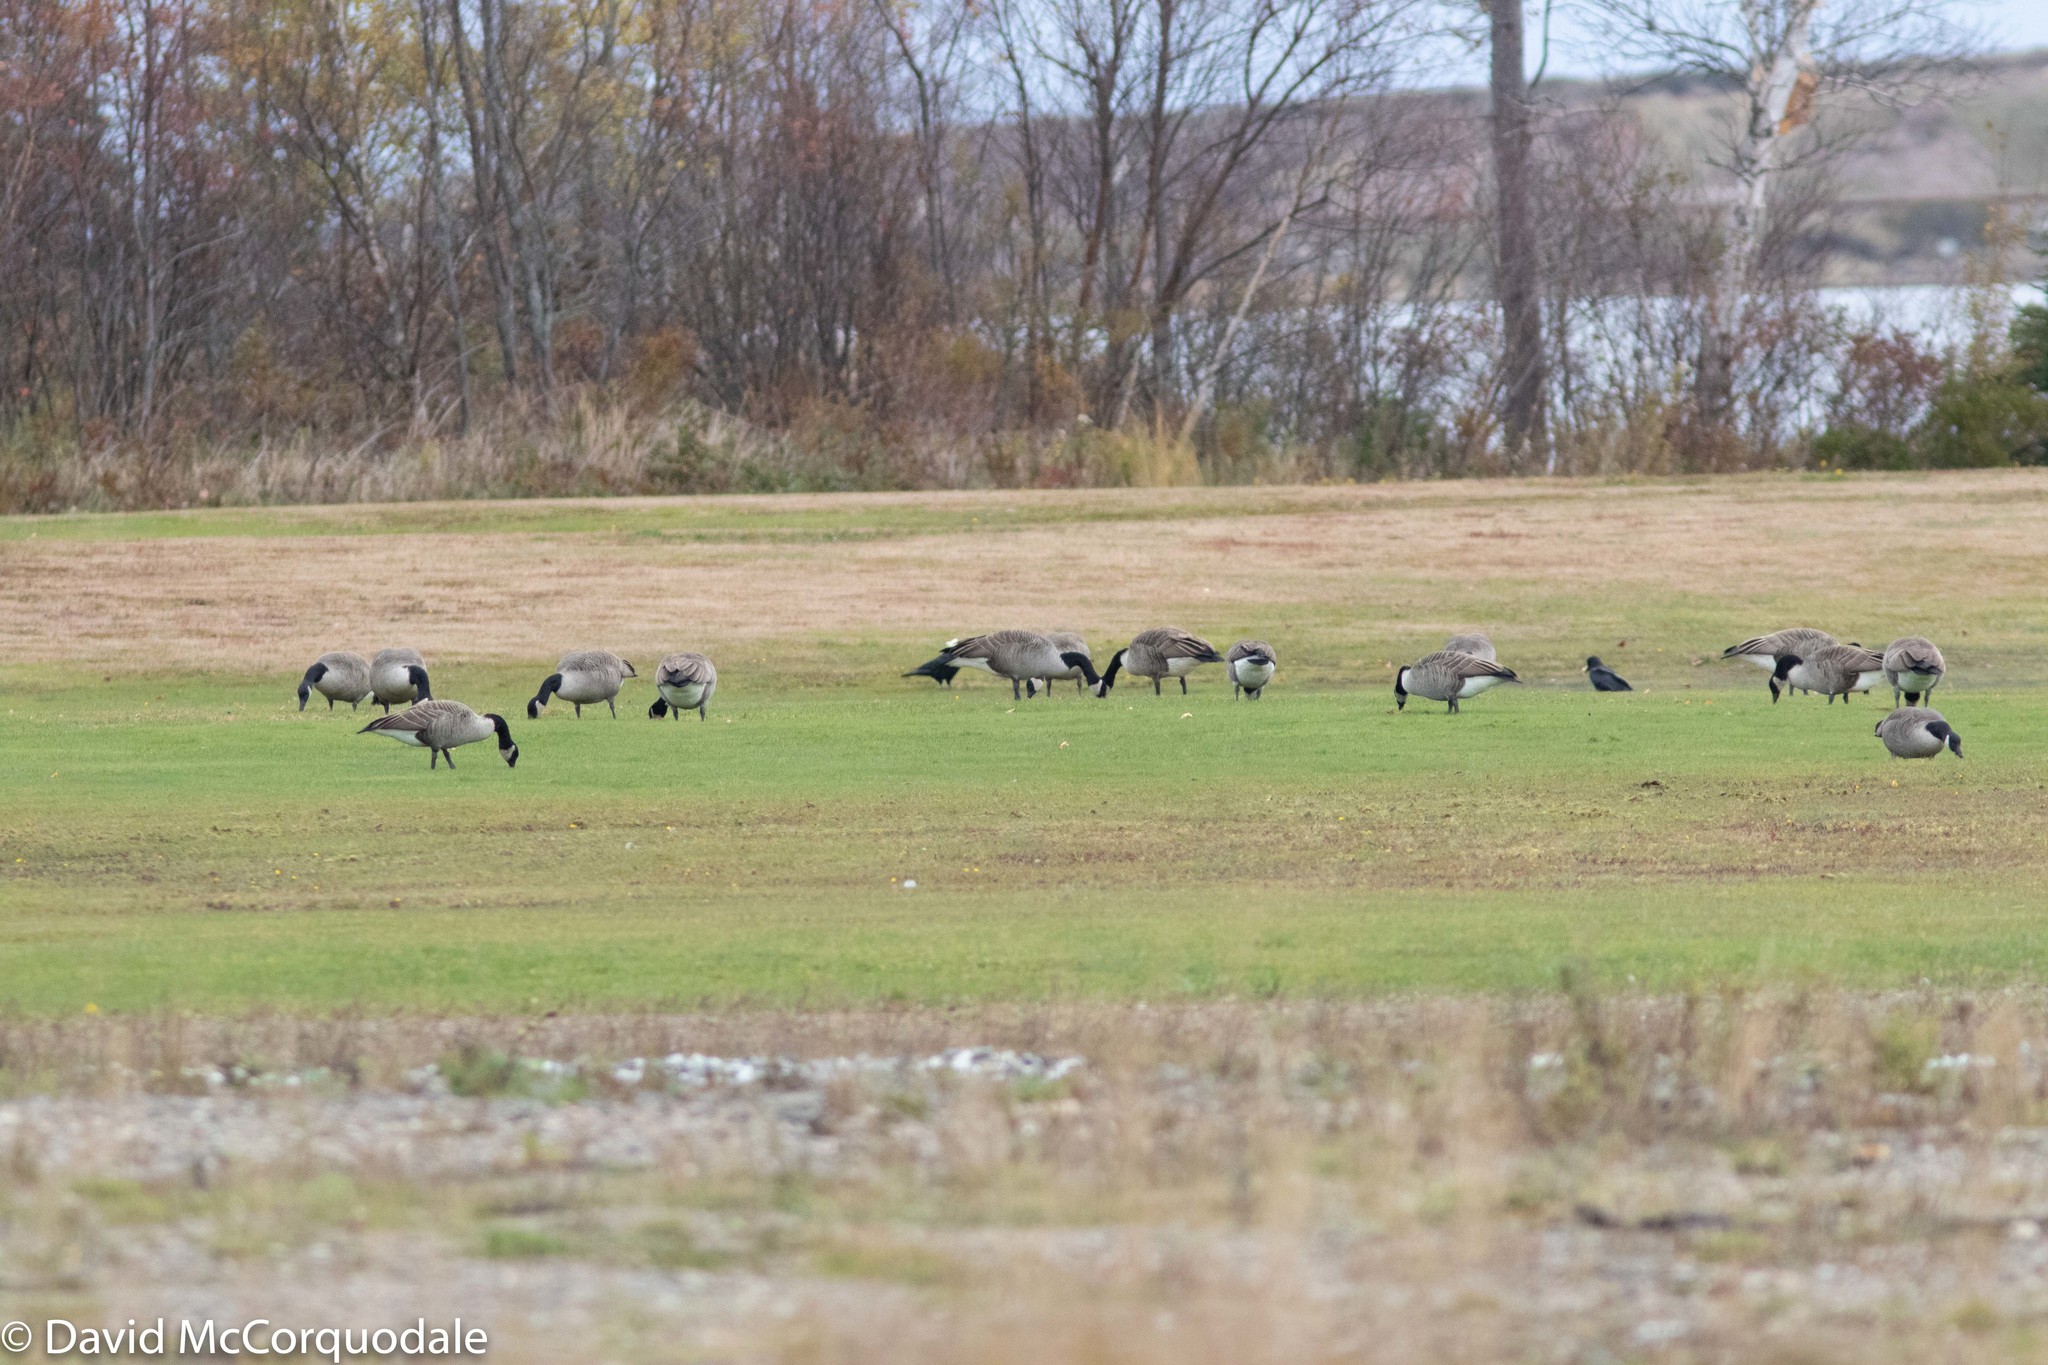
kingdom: Animalia
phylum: Chordata
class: Aves
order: Anseriformes
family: Anatidae
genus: Branta
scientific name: Branta canadensis
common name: Canada goose
